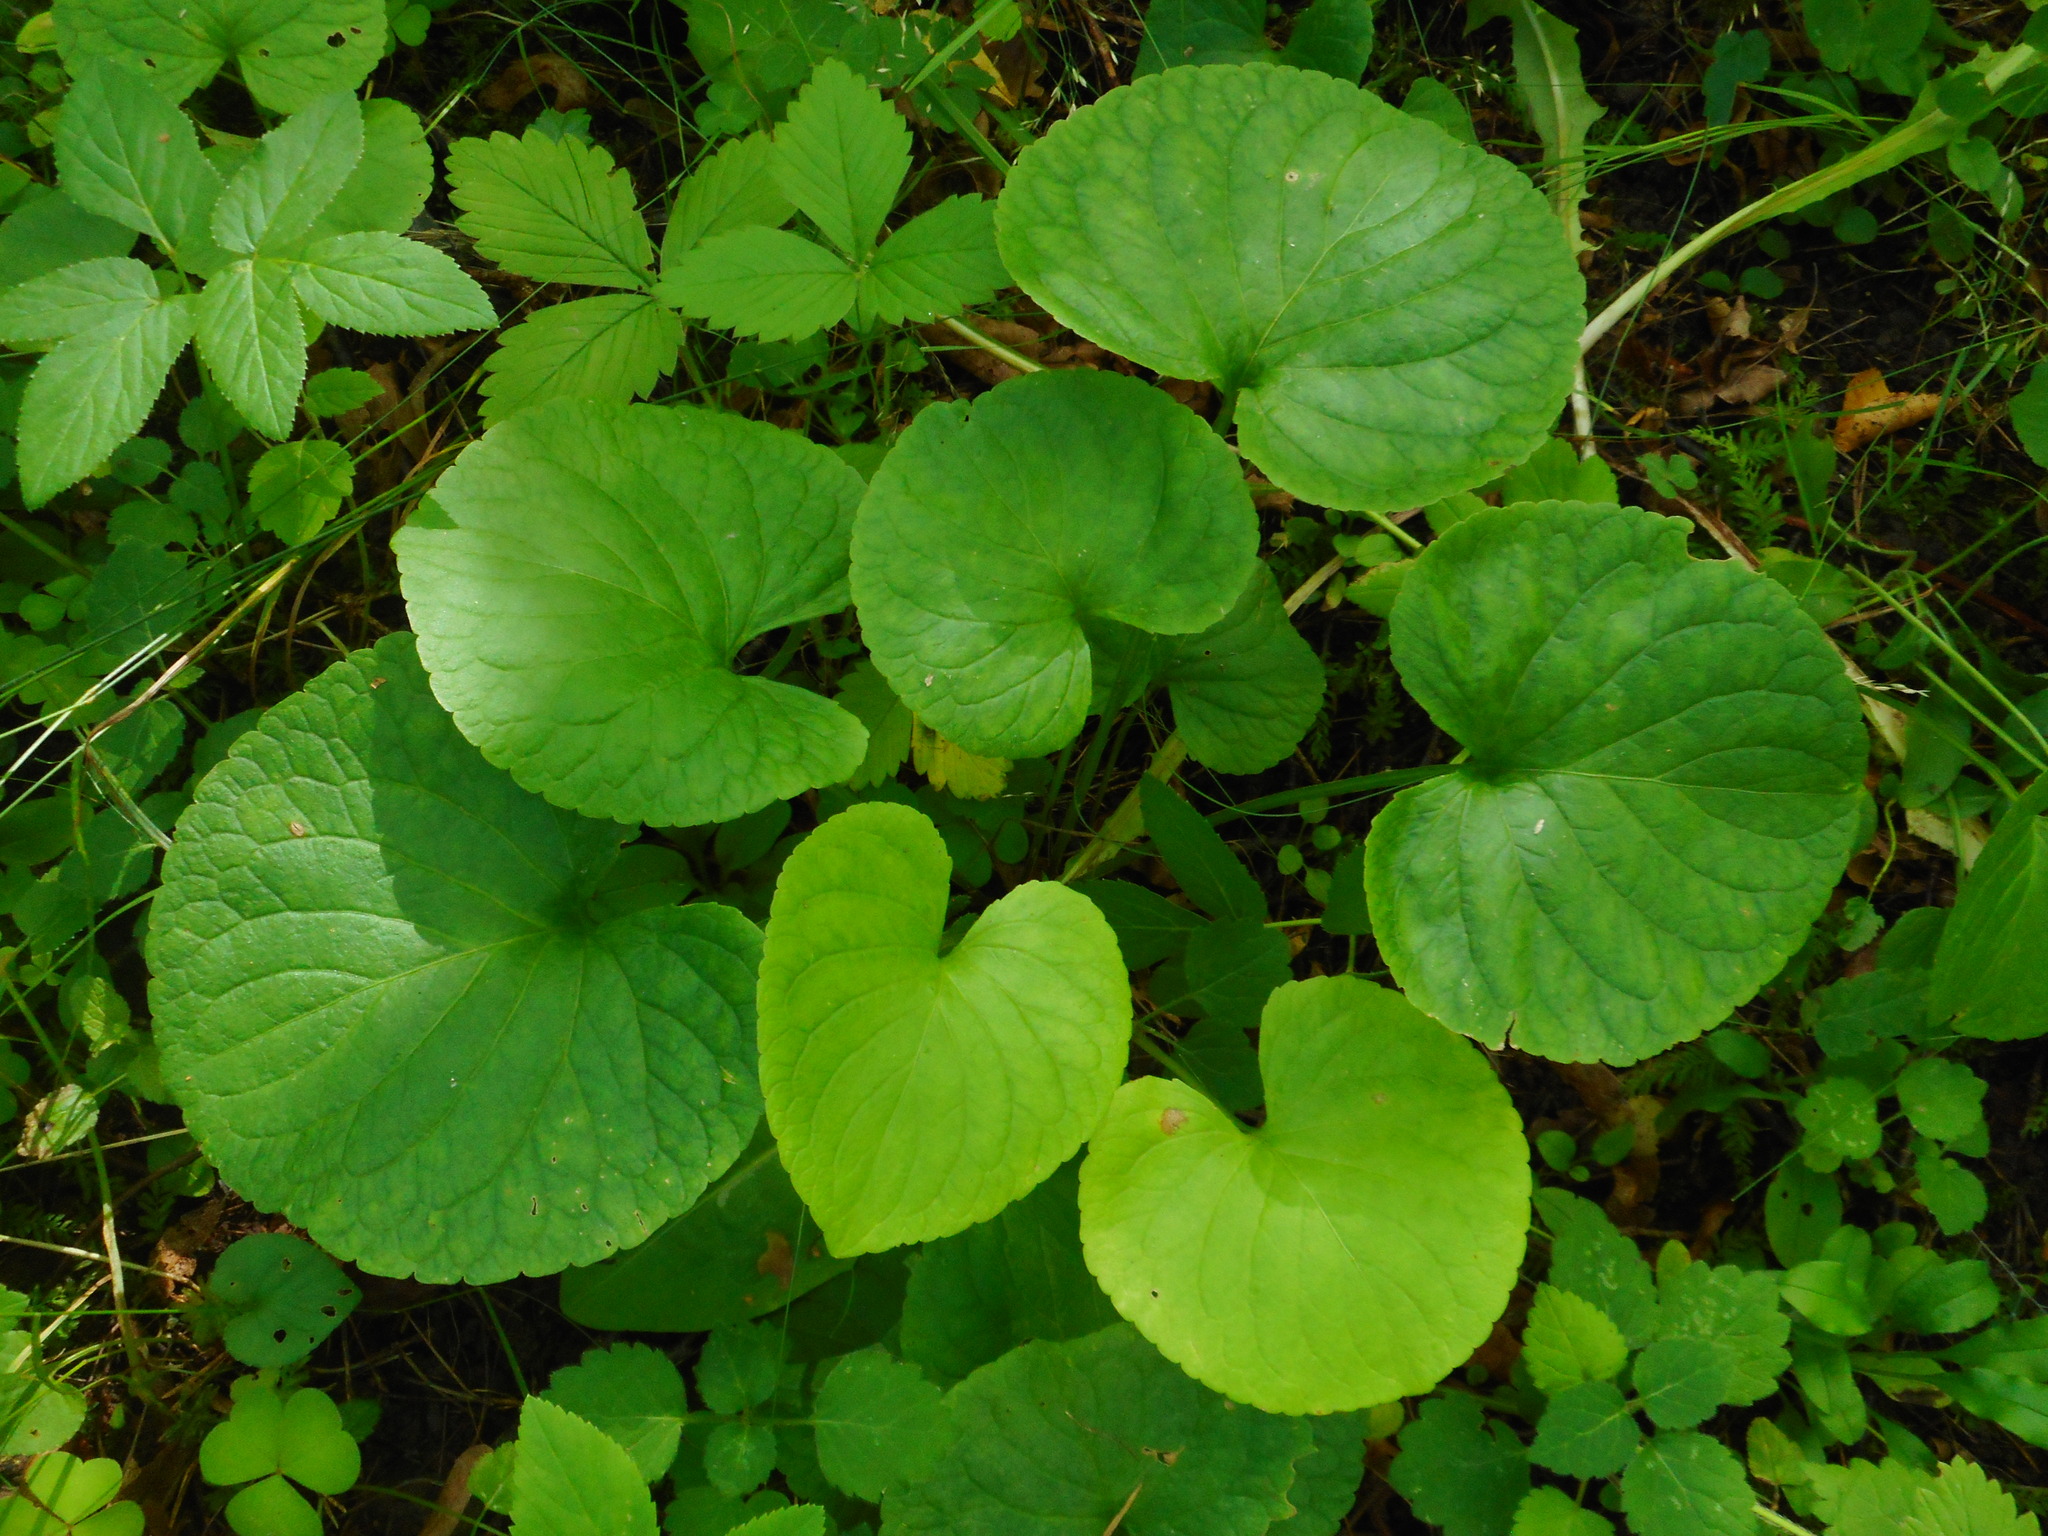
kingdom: Plantae
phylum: Tracheophyta
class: Magnoliopsida
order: Malpighiales
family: Violaceae
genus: Viola
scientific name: Viola mirabilis
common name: Wonder violet
